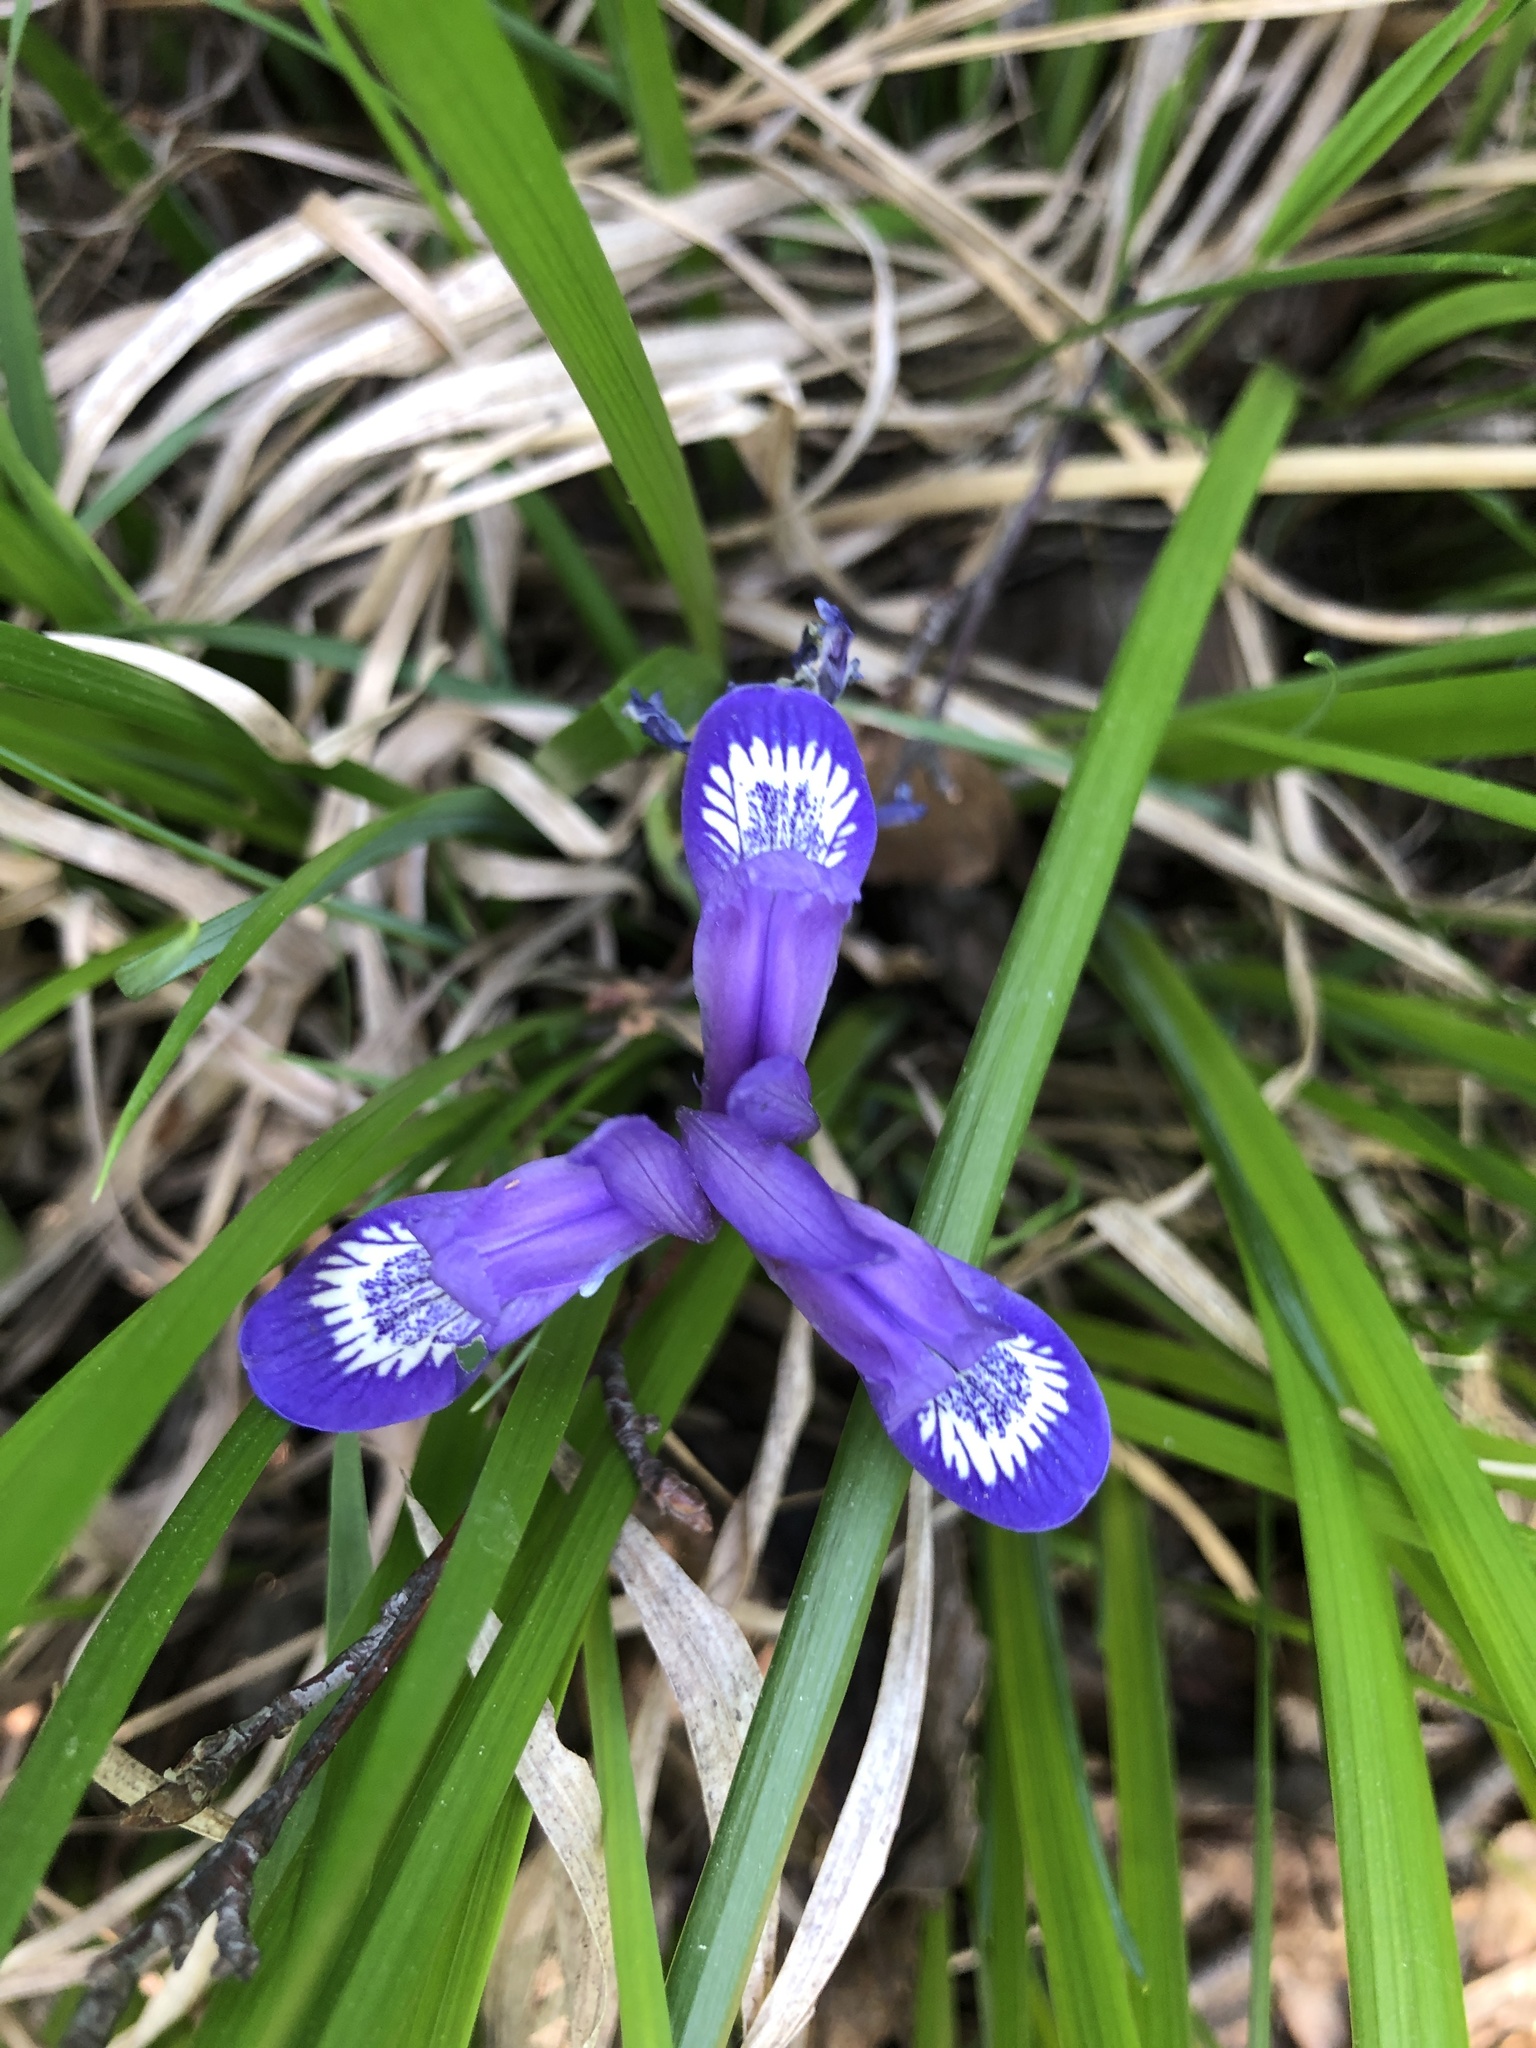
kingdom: Plantae
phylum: Tracheophyta
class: Liliopsida
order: Asparagales
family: Iridaceae
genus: Iris
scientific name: Iris ruthenica
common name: Purple-bract iris
